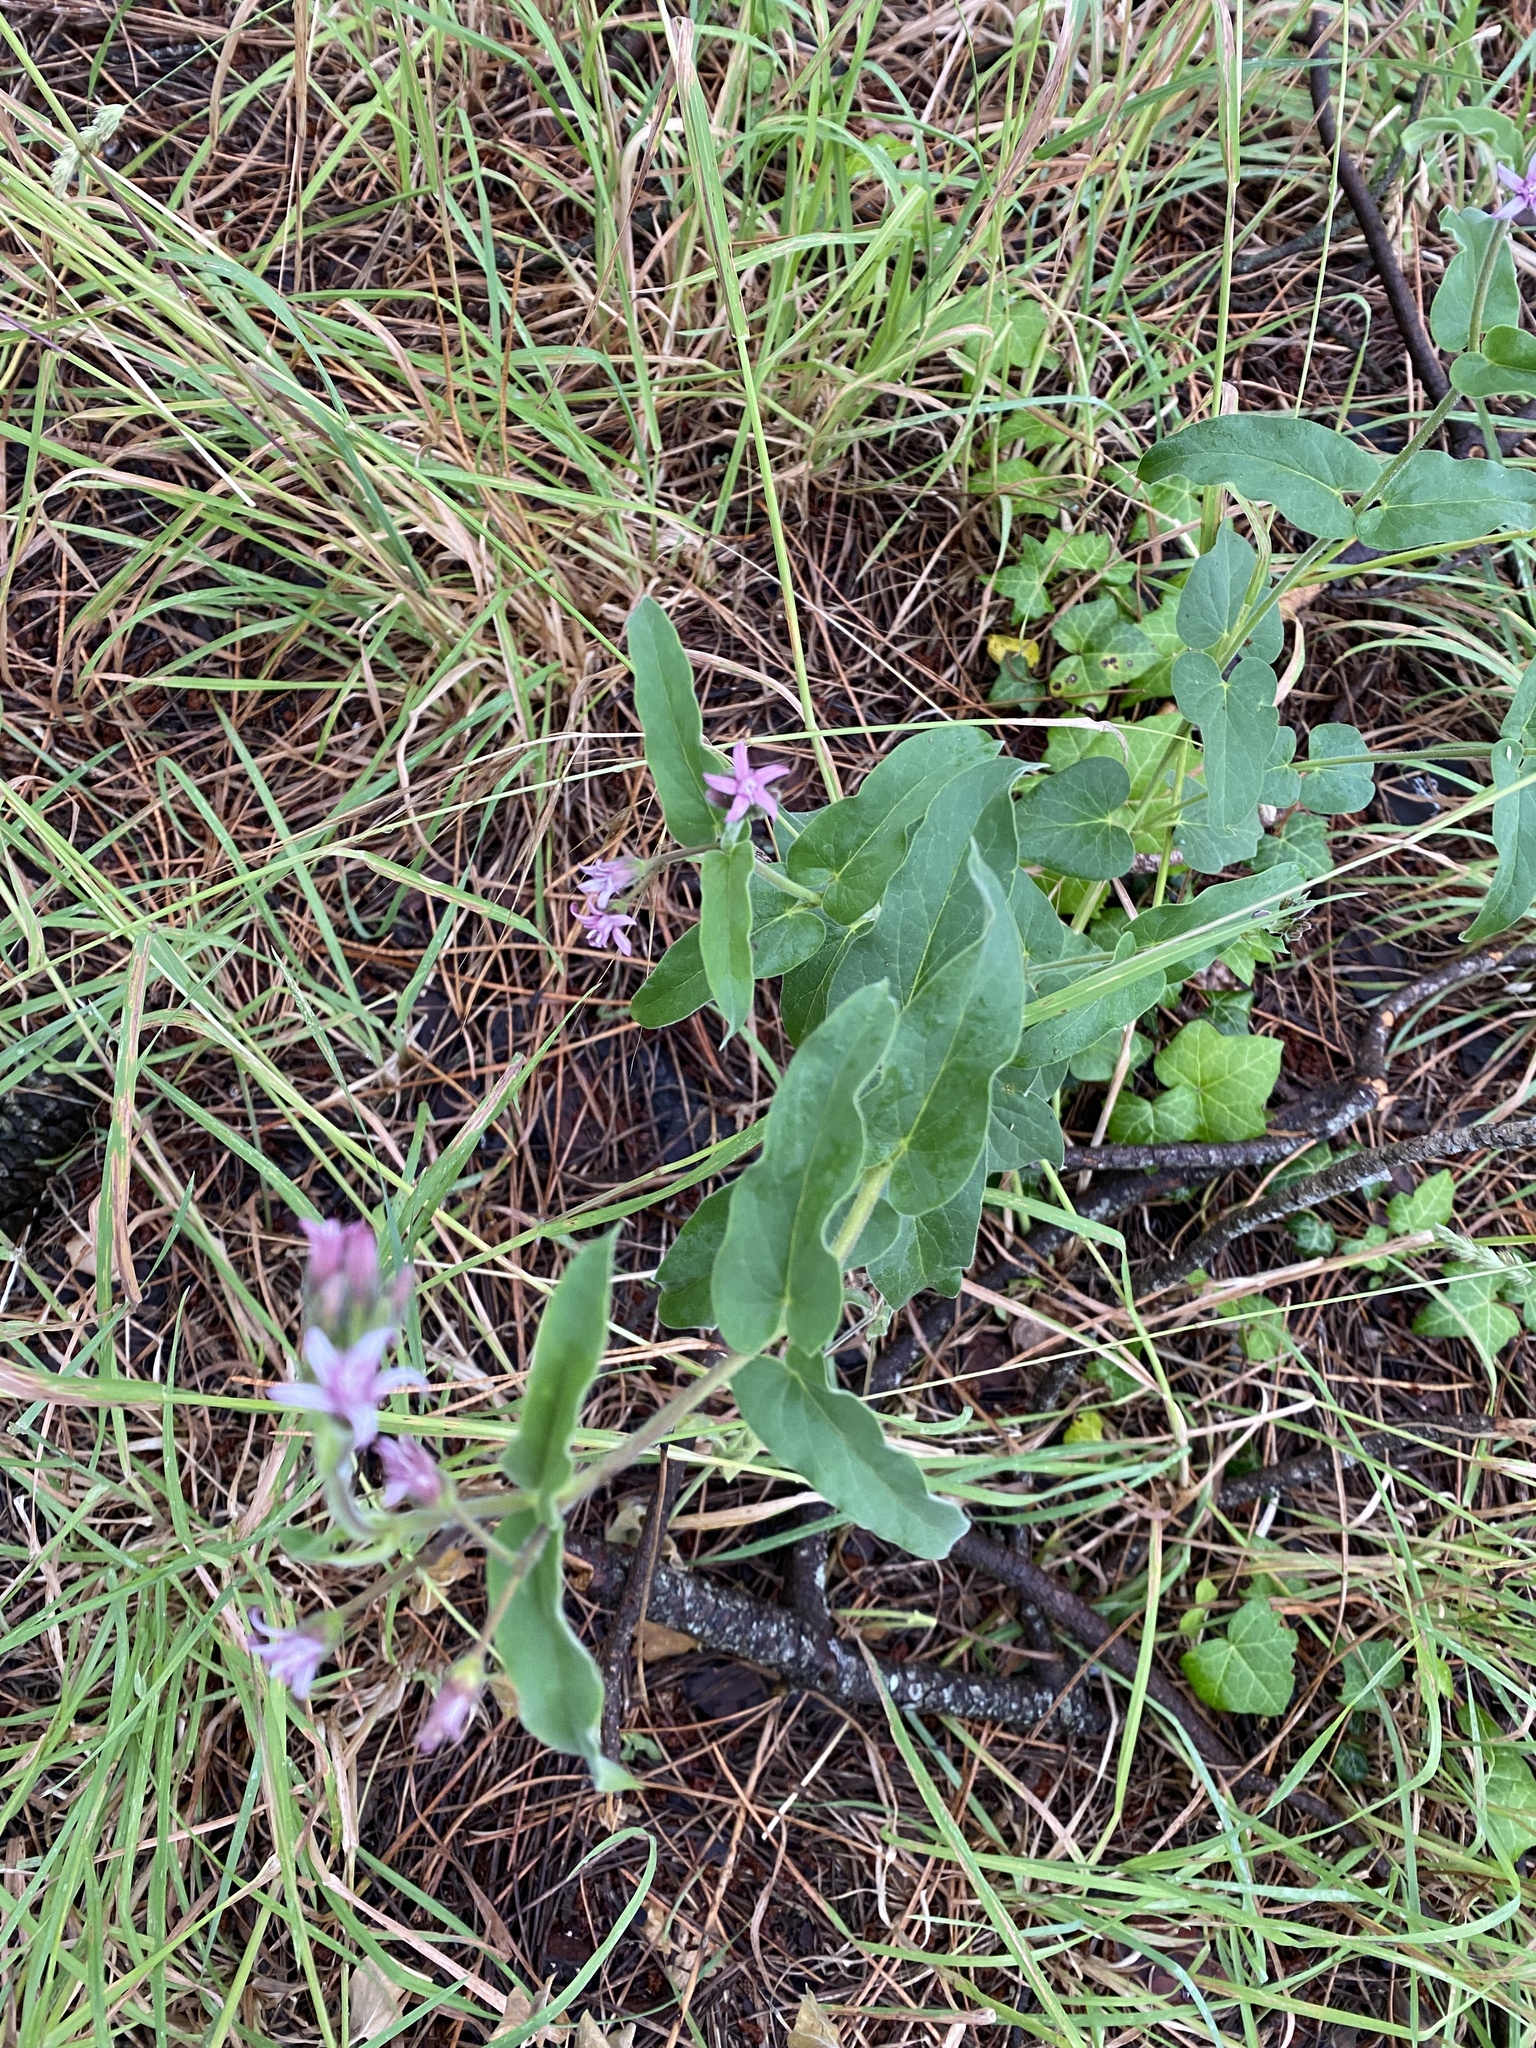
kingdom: Plantae
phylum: Tracheophyta
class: Magnoliopsida
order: Gentianales
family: Apocynaceae
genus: Oxypetalum
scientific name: Oxypetalum solanoides
